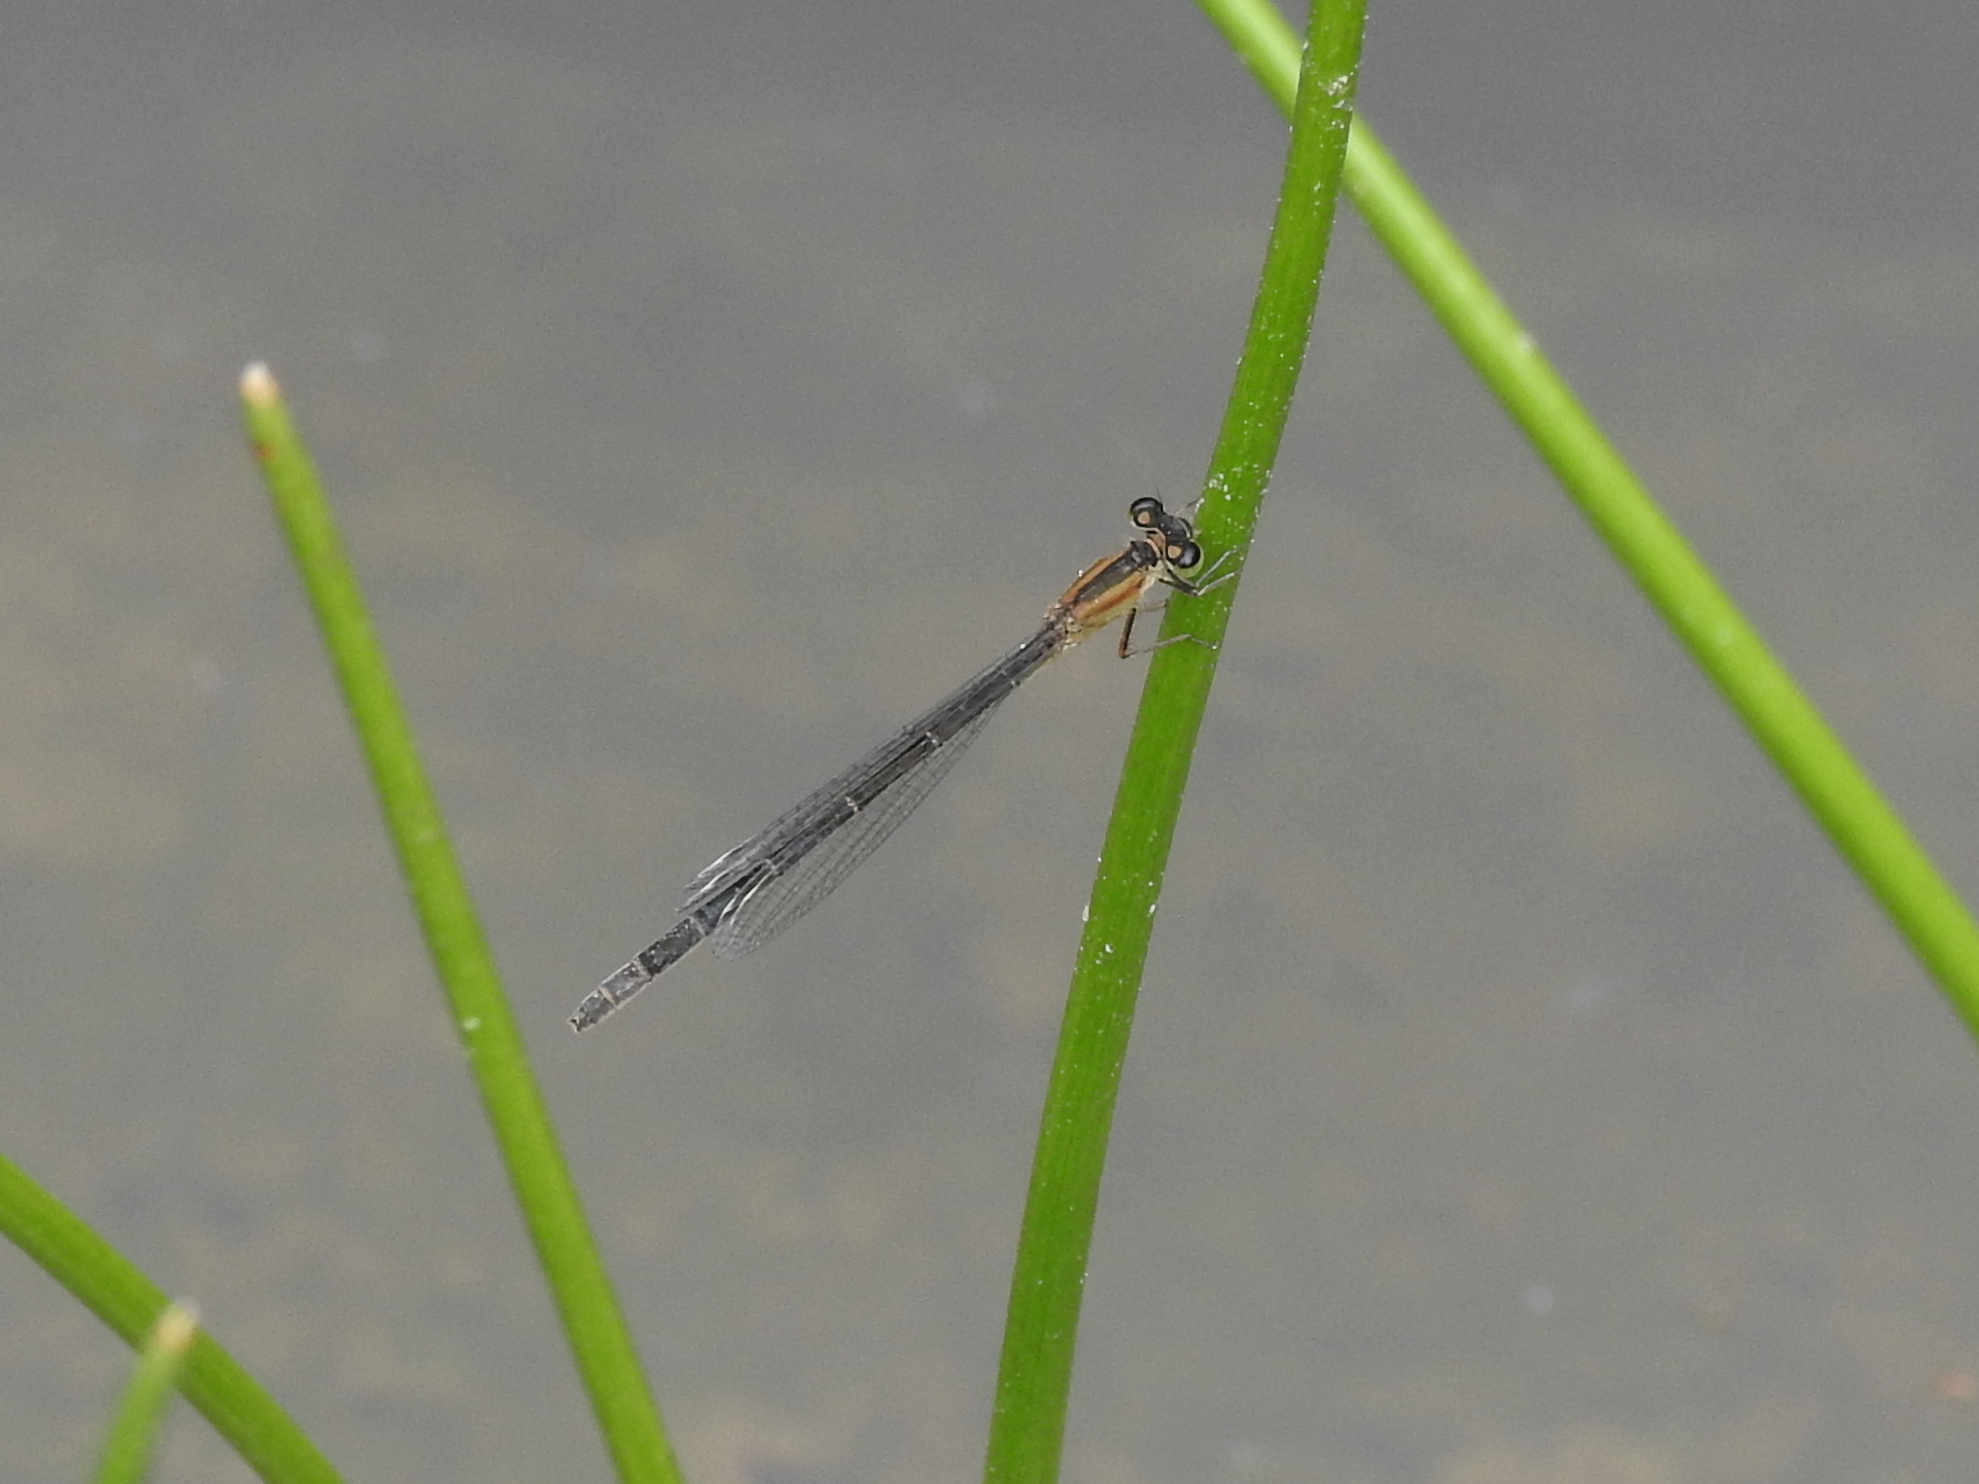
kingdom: Animalia
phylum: Arthropoda
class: Insecta
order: Odonata
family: Coenagrionidae
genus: Ischnura
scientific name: Ischnura elegans
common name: Blue-tailed damselfly
